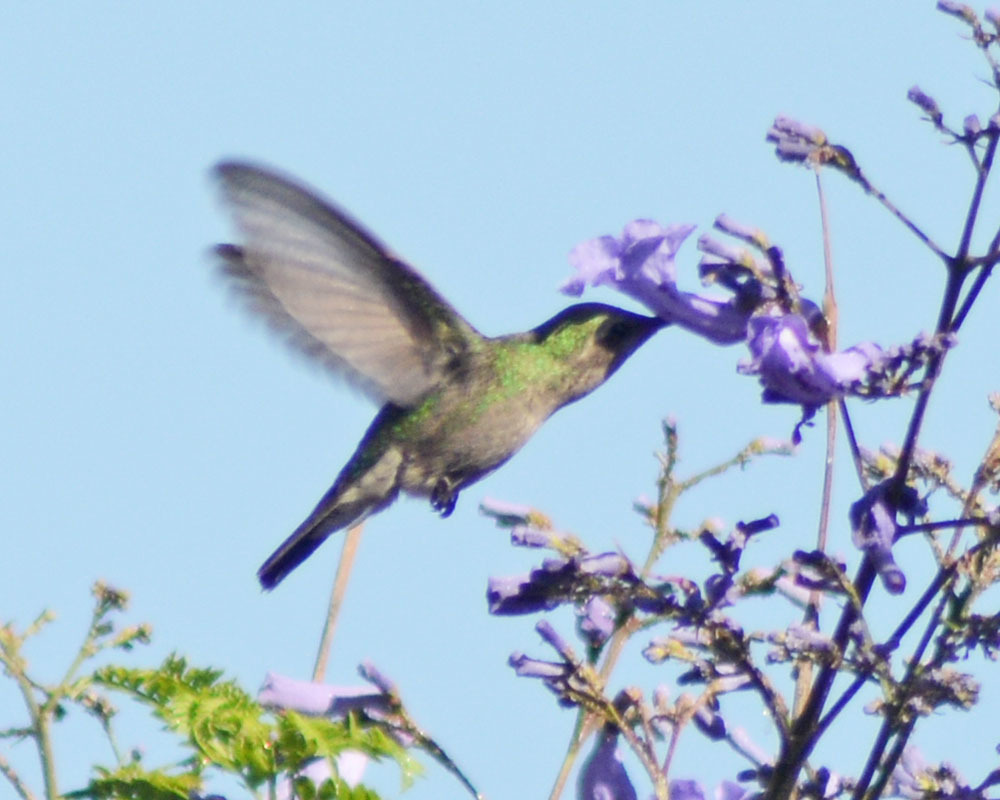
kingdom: Animalia
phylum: Chordata
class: Aves
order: Apodiformes
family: Trochilidae
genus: Cynanthus
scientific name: Cynanthus latirostris
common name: Broad-billed hummingbird
